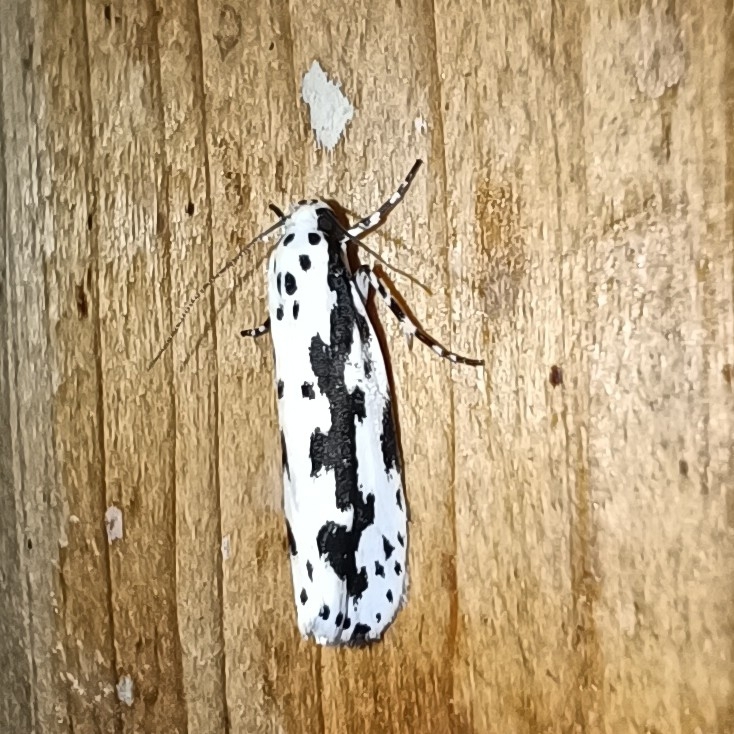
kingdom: Animalia
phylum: Arthropoda
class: Insecta
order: Lepidoptera
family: Ethmiidae
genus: Ethmia
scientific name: Ethmia pusiella
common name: Striped ermel
